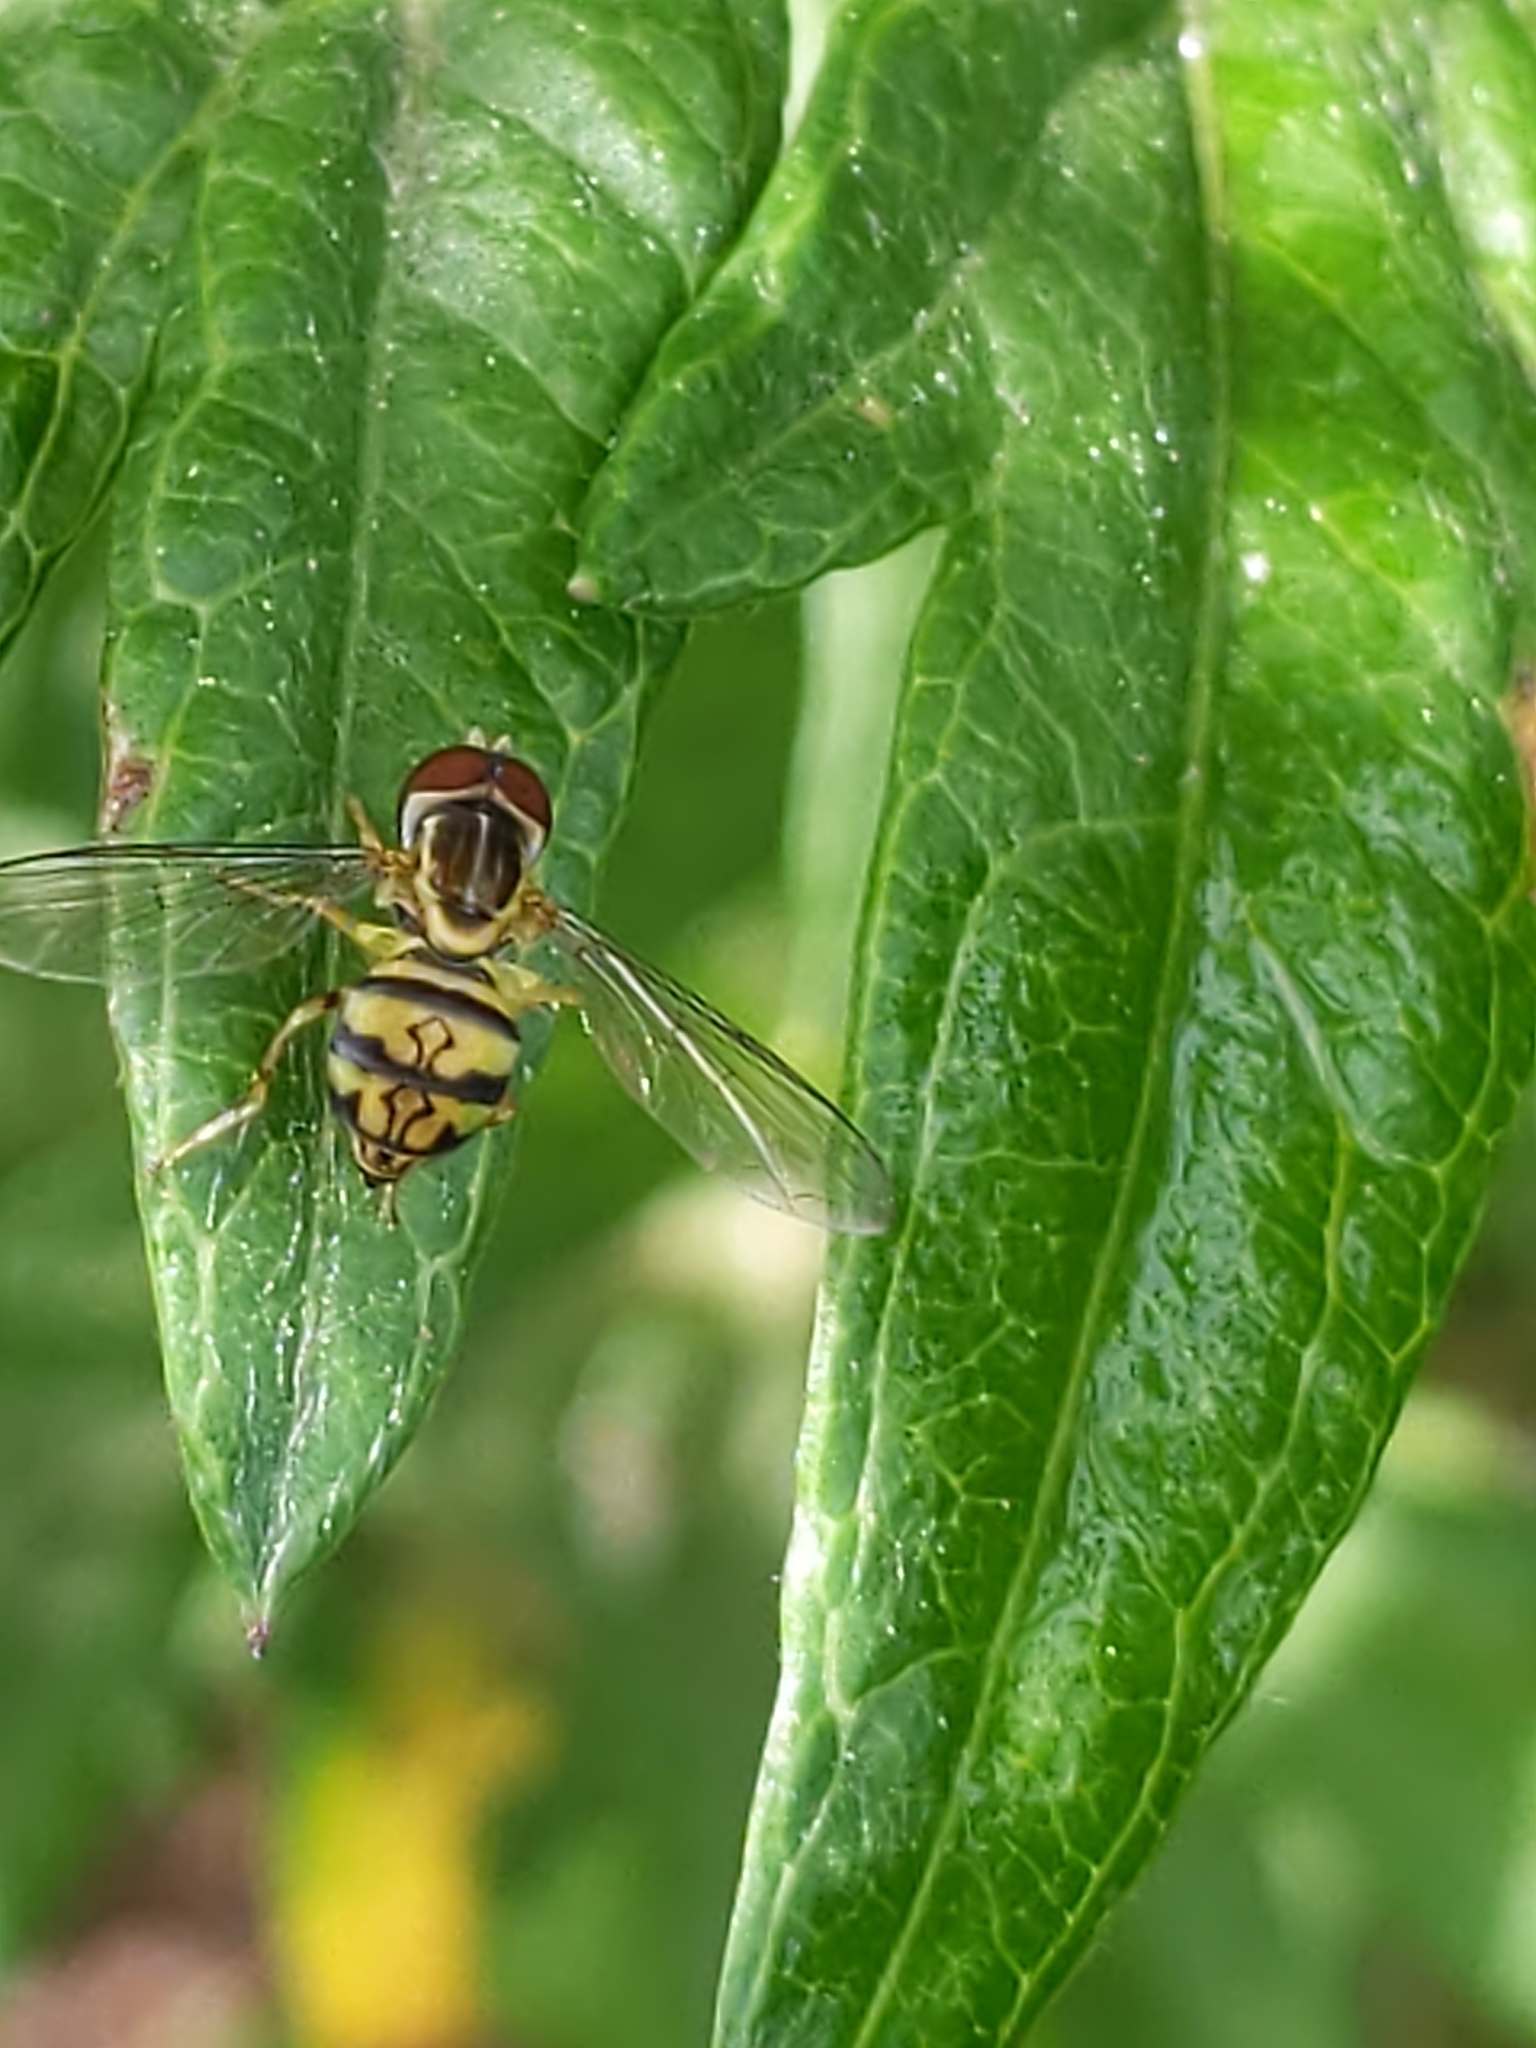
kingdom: Animalia
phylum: Arthropoda
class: Insecta
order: Diptera
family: Syrphidae
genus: Toxomerus
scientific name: Toxomerus geminatus
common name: Eastern calligrapher
